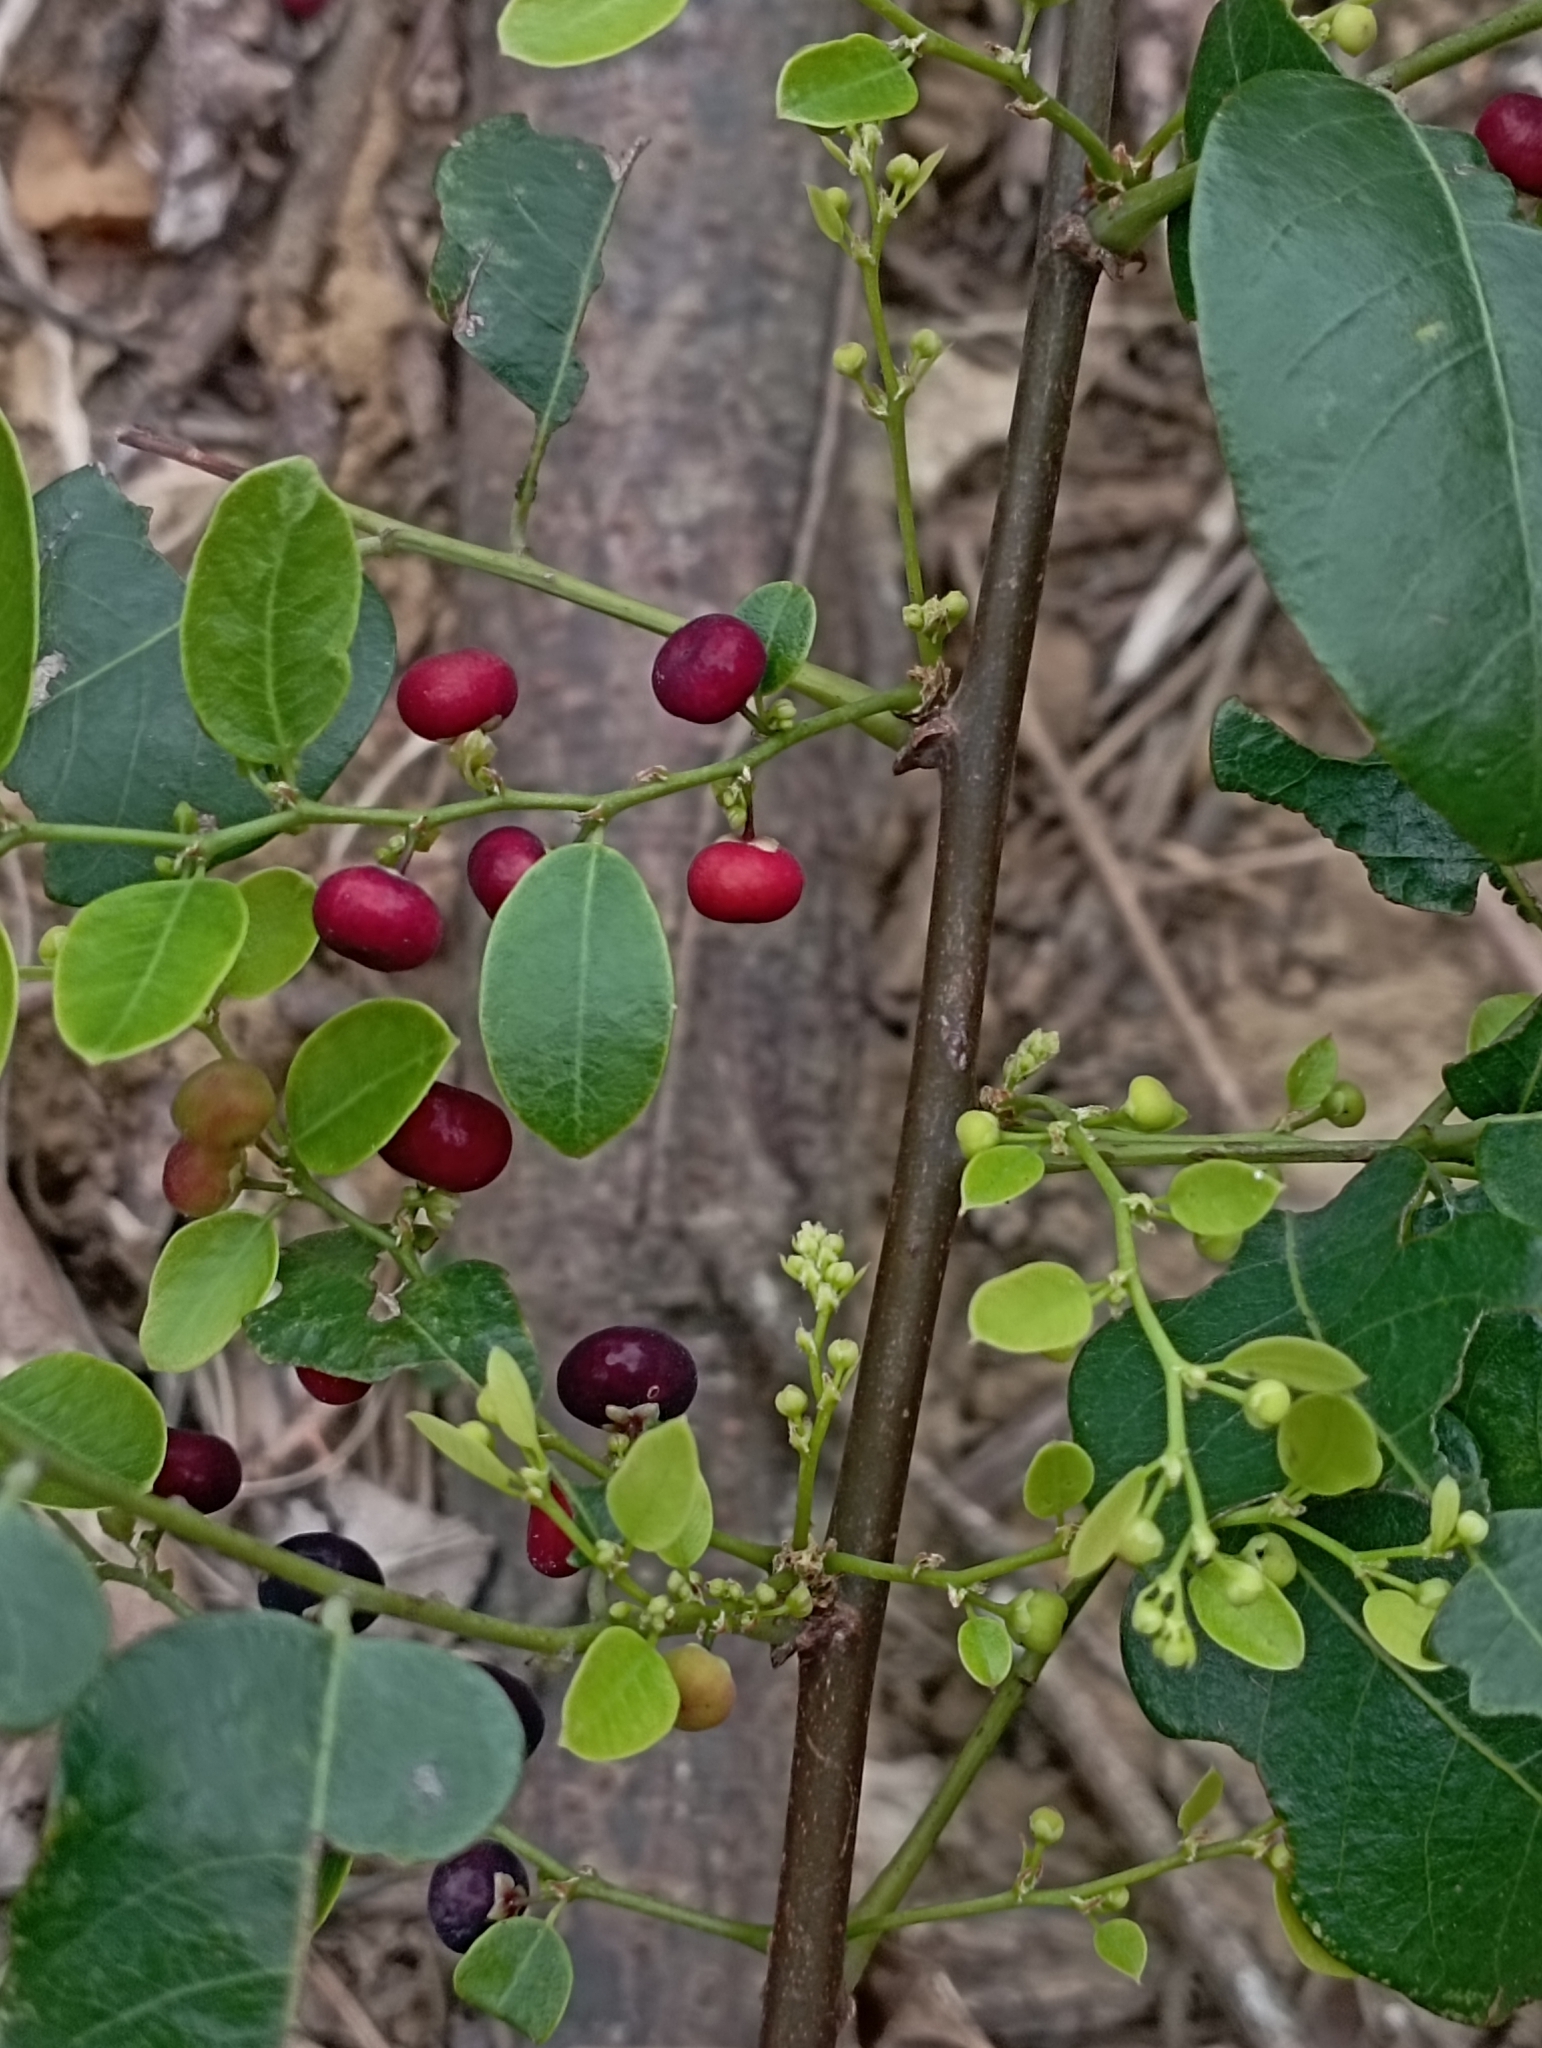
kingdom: Plantae
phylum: Tracheophyta
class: Magnoliopsida
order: Malpighiales
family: Phyllanthaceae
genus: Phyllanthus
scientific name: Phyllanthus reticulatus
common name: Potato bush
